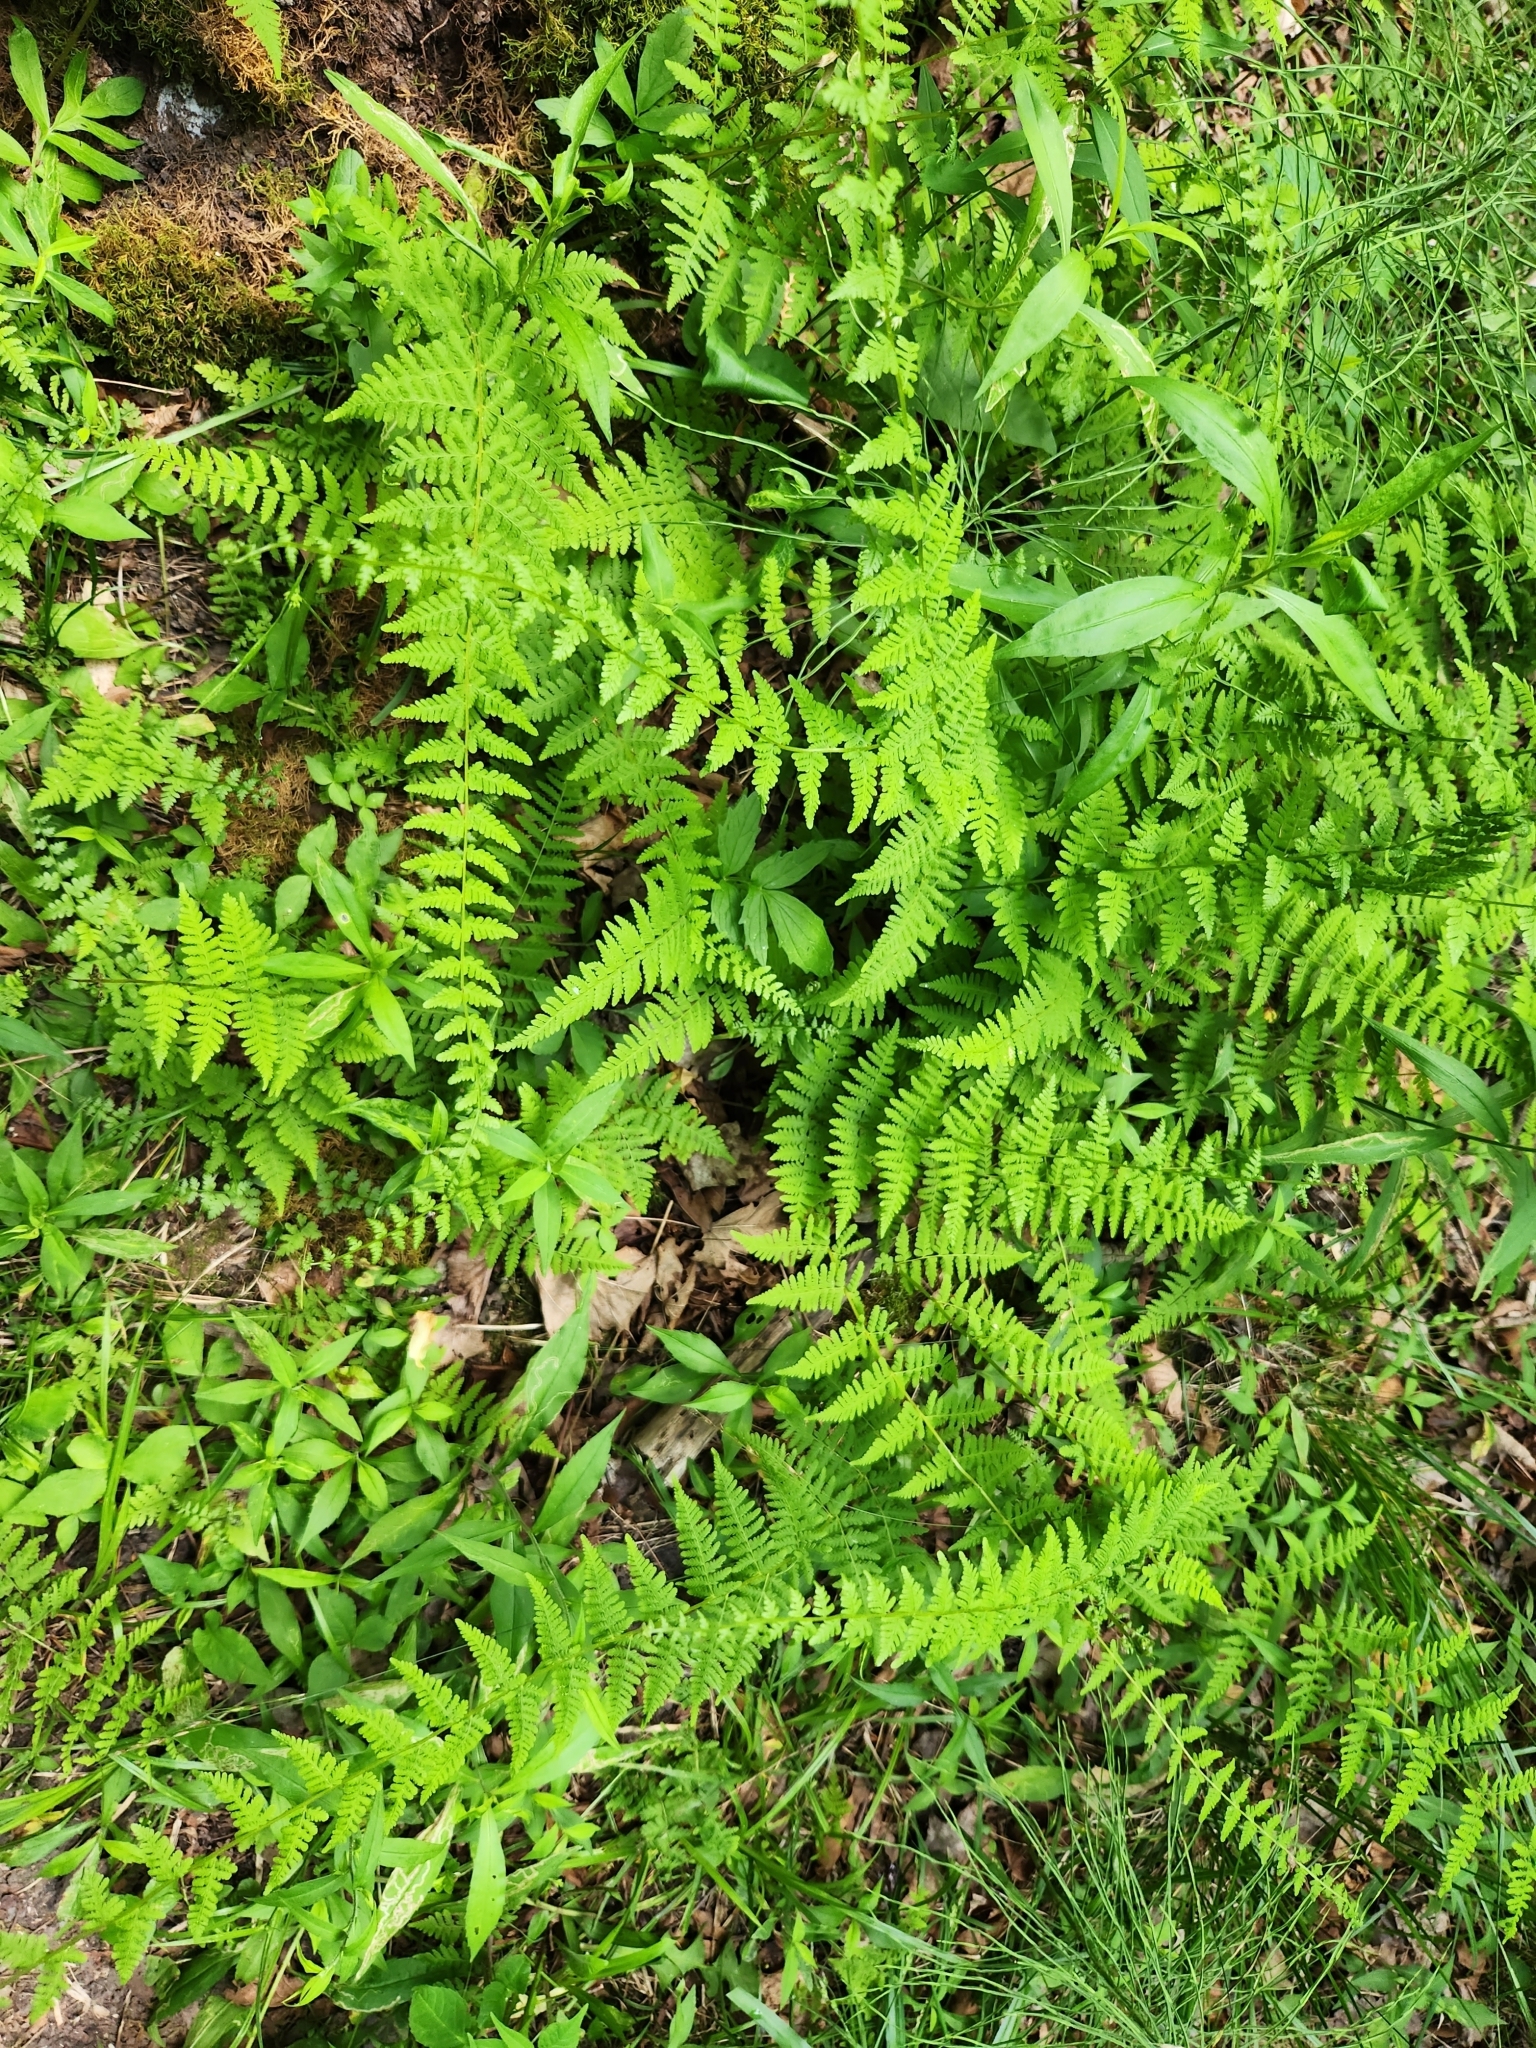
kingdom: Plantae
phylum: Tracheophyta
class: Polypodiopsida
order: Polypodiales
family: Cystopteridaceae
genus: Cystopteris
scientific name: Cystopteris bulbifera
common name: Bulblet bladder fern
